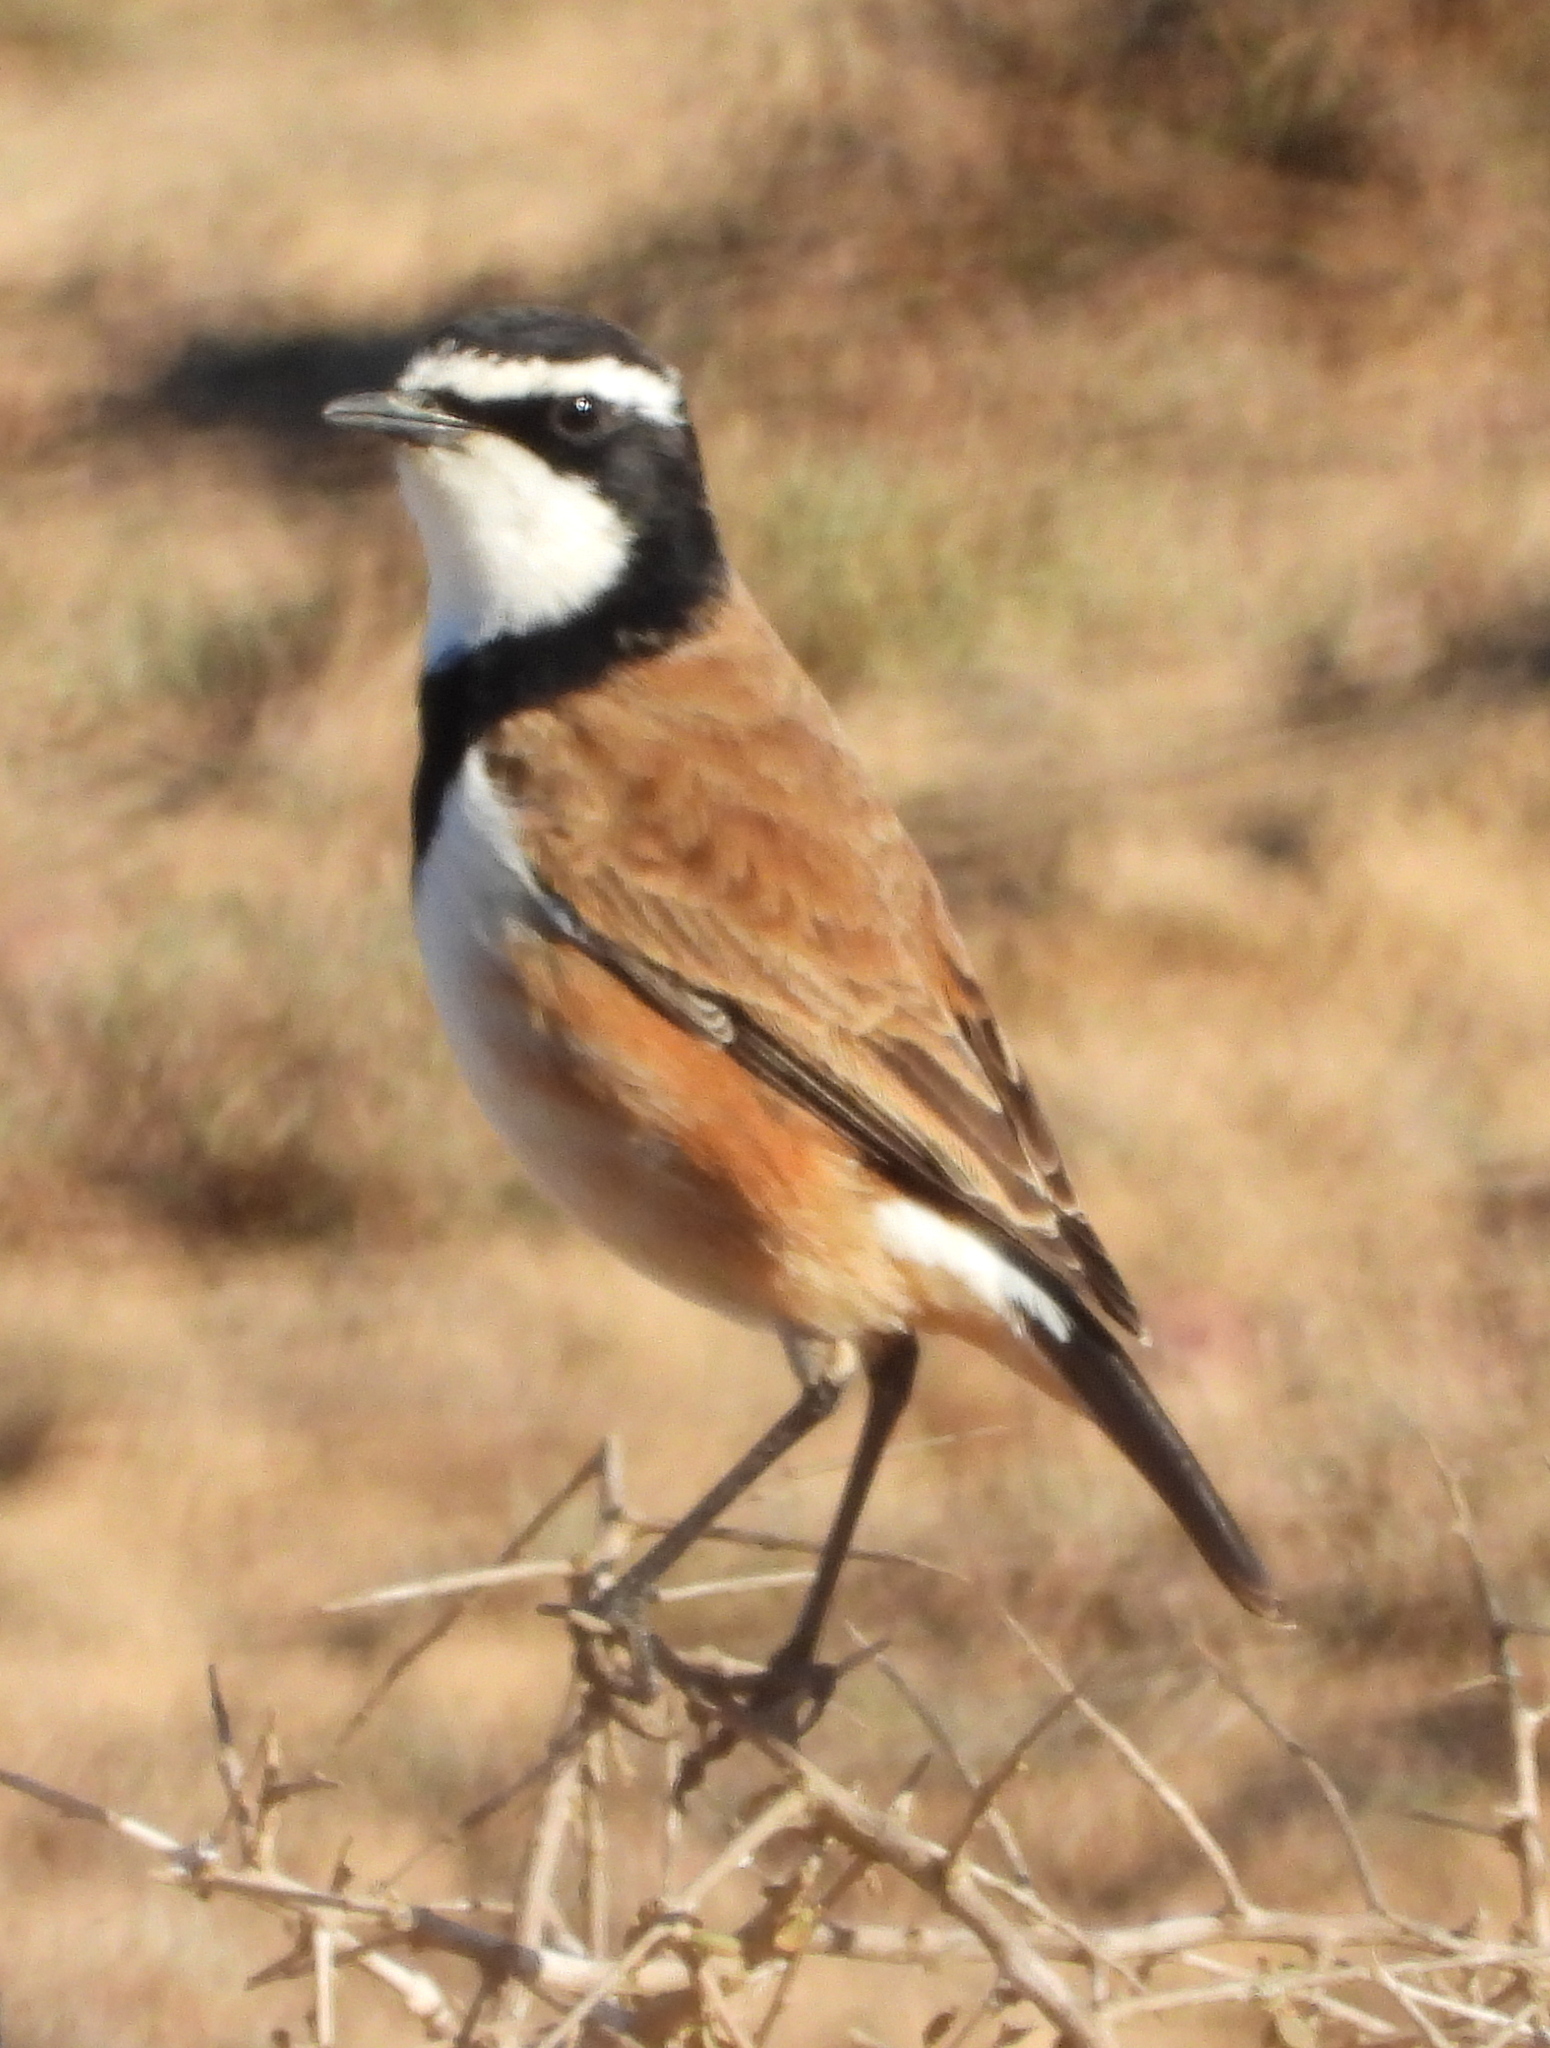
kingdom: Animalia
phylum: Chordata
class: Aves
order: Passeriformes
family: Muscicapidae
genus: Oenanthe
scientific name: Oenanthe pileata
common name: Capped wheatear
